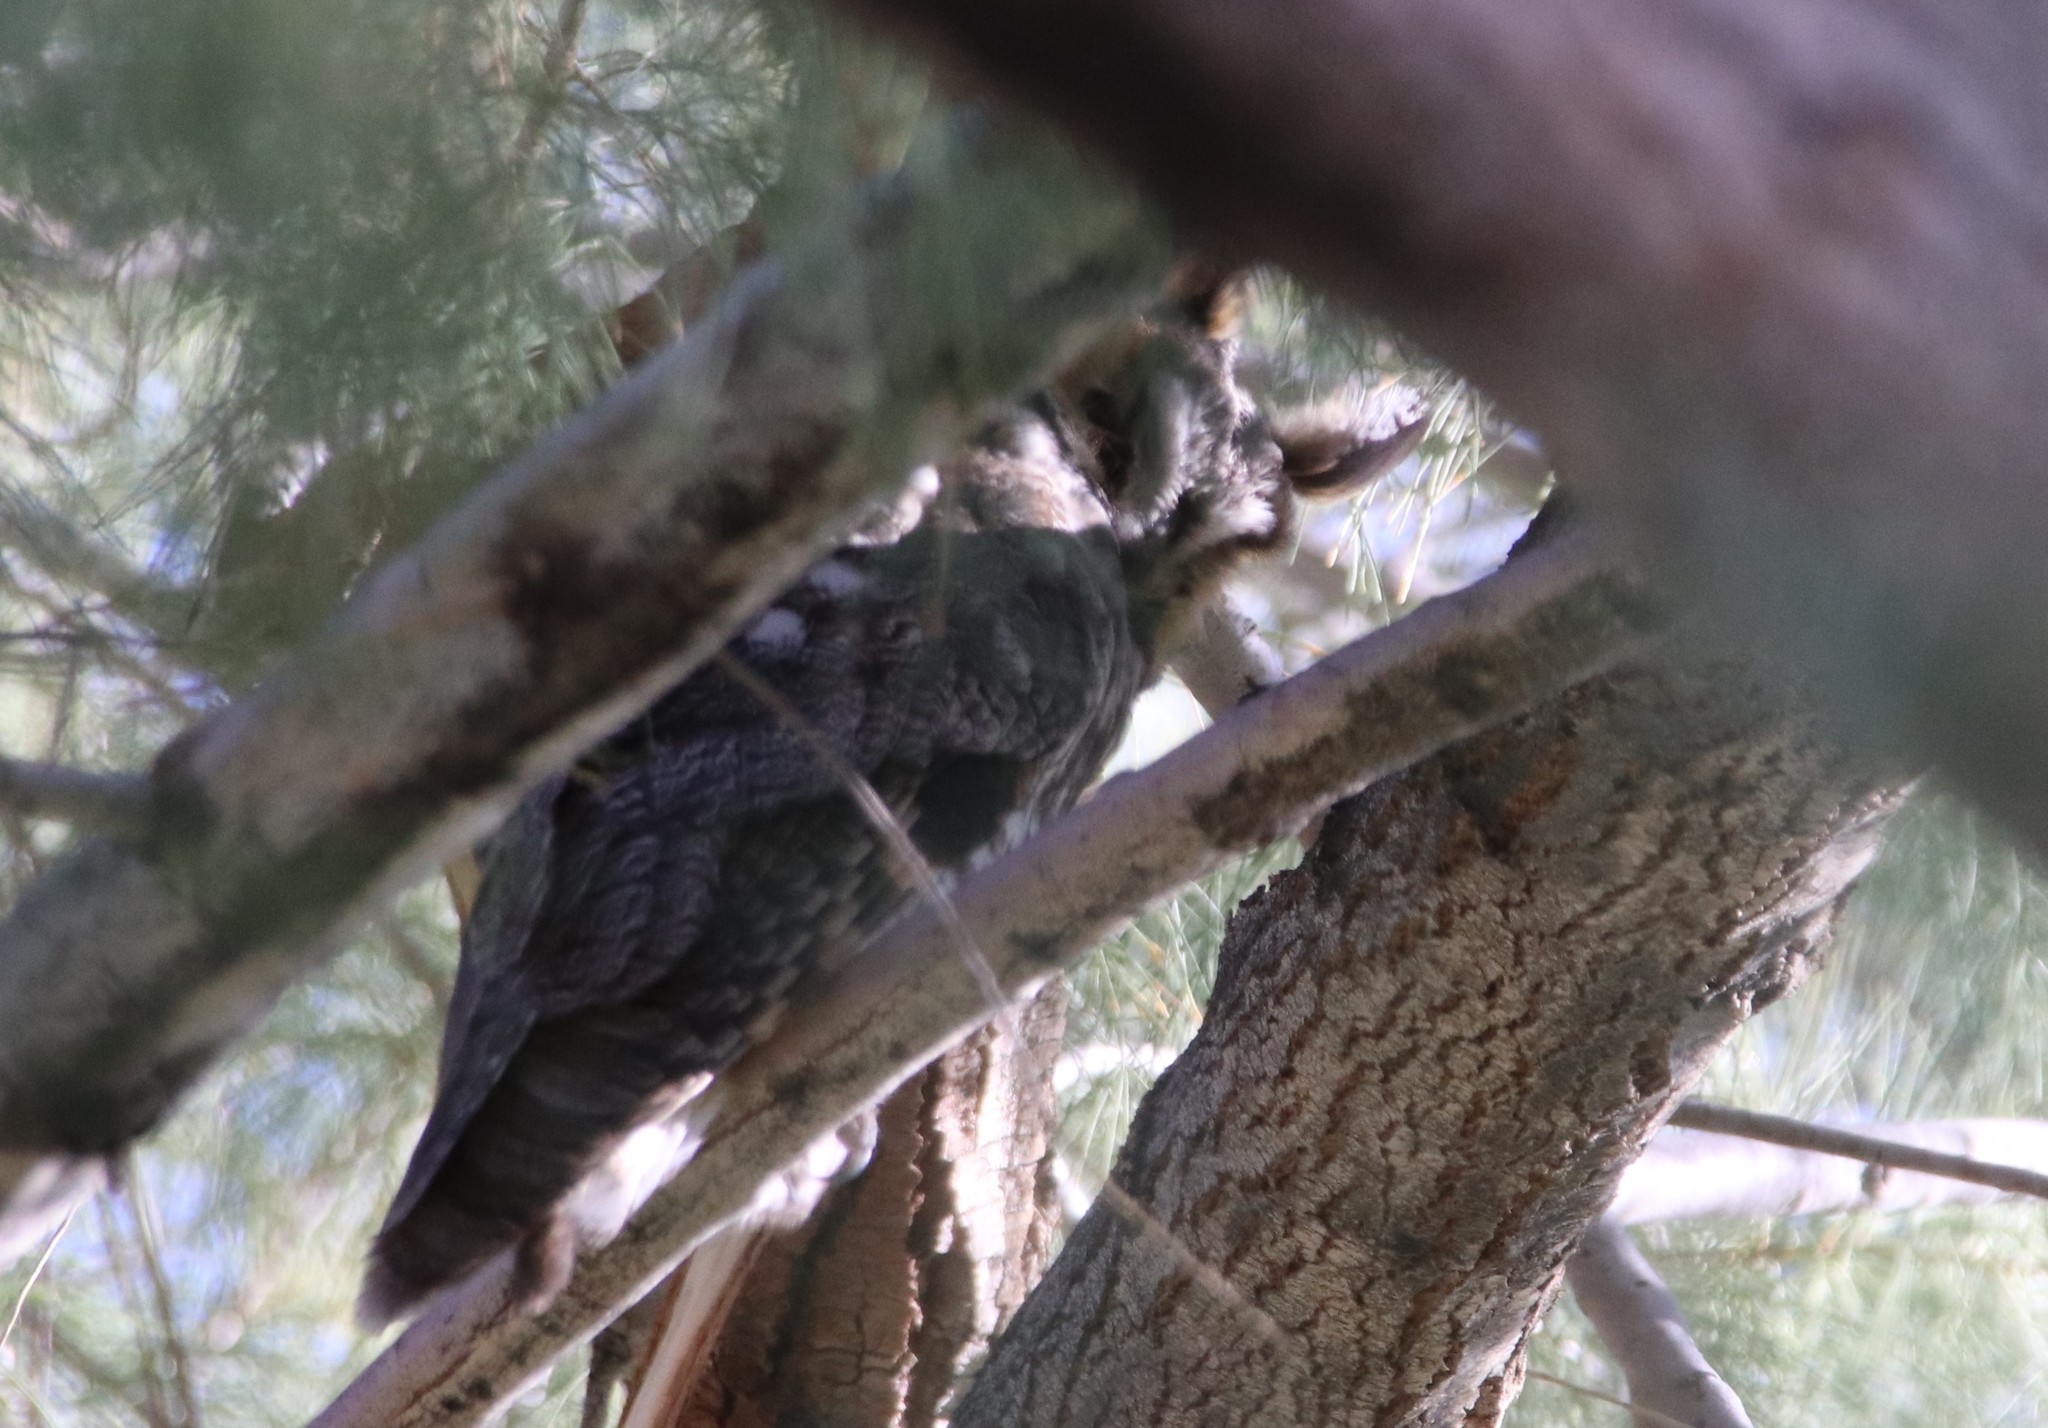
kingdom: Animalia
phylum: Chordata
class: Aves
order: Strigiformes
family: Strigidae
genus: Asio
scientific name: Asio otus
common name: Long-eared owl
